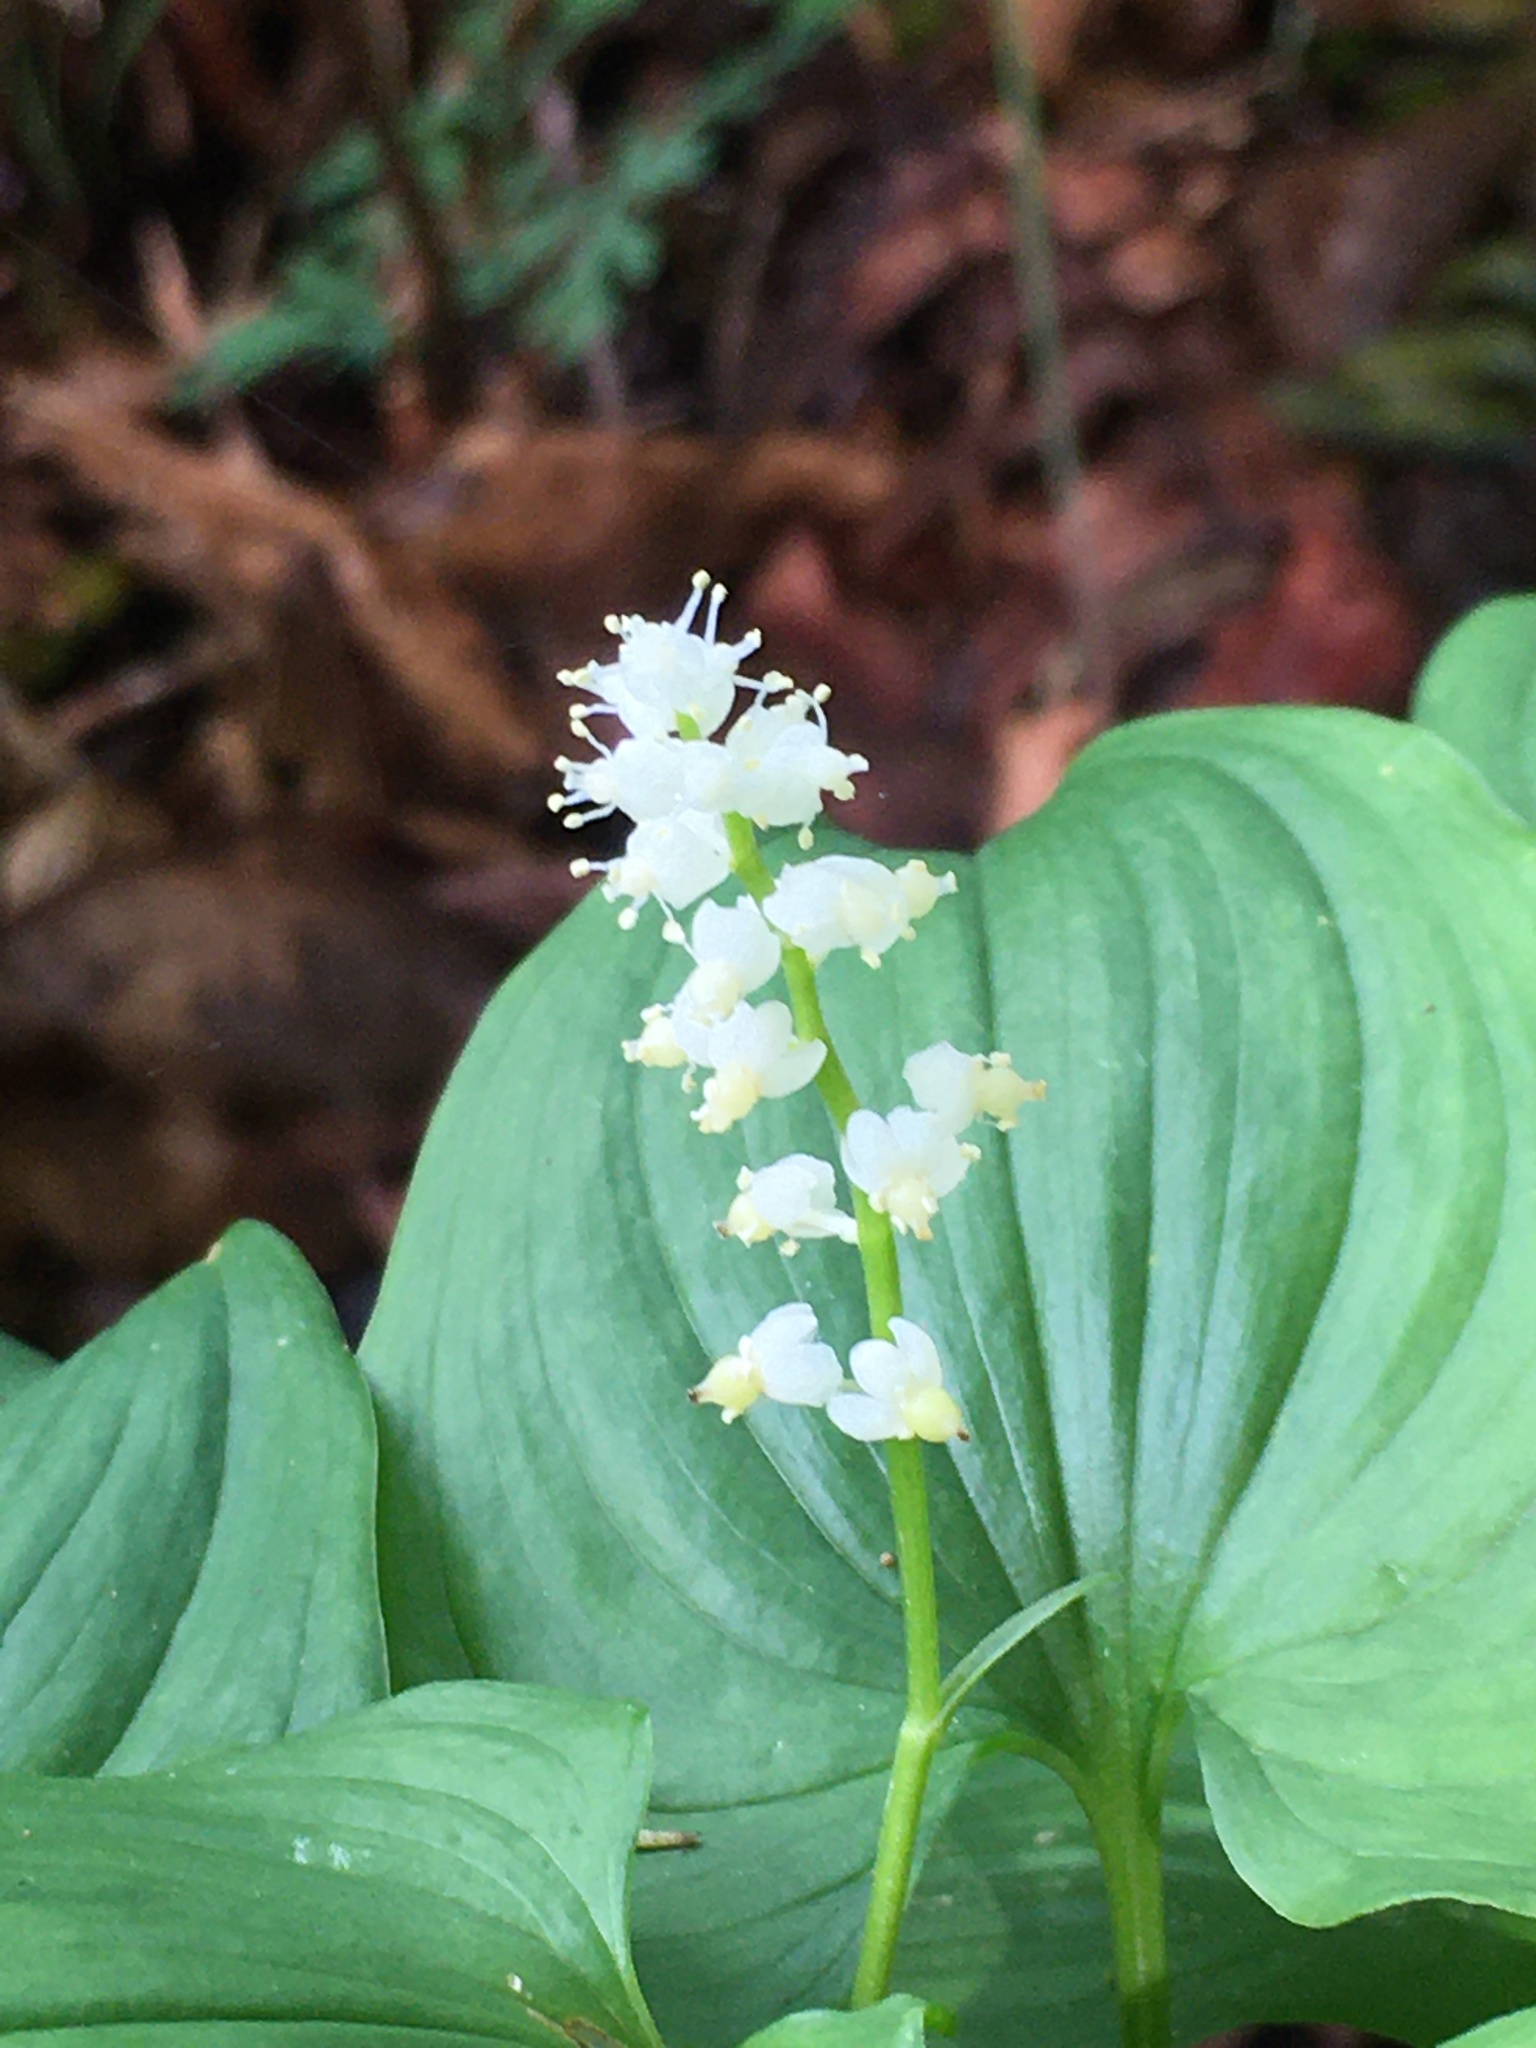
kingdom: Plantae
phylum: Tracheophyta
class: Liliopsida
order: Asparagales
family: Asparagaceae
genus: Maianthemum
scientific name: Maianthemum dilatatum
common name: False lily-of-the-valley
